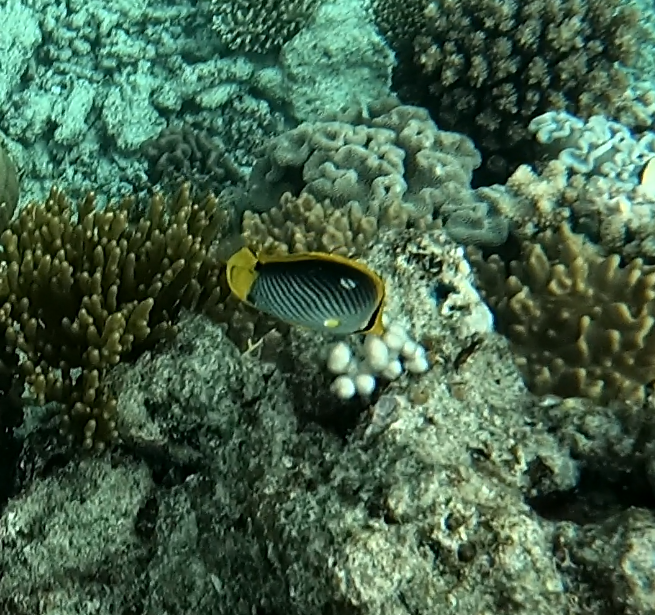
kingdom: Animalia
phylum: Chordata
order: Perciformes
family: Chaetodontidae
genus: Chaetodon
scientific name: Chaetodon melannotus
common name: Blackback butterflyfish
